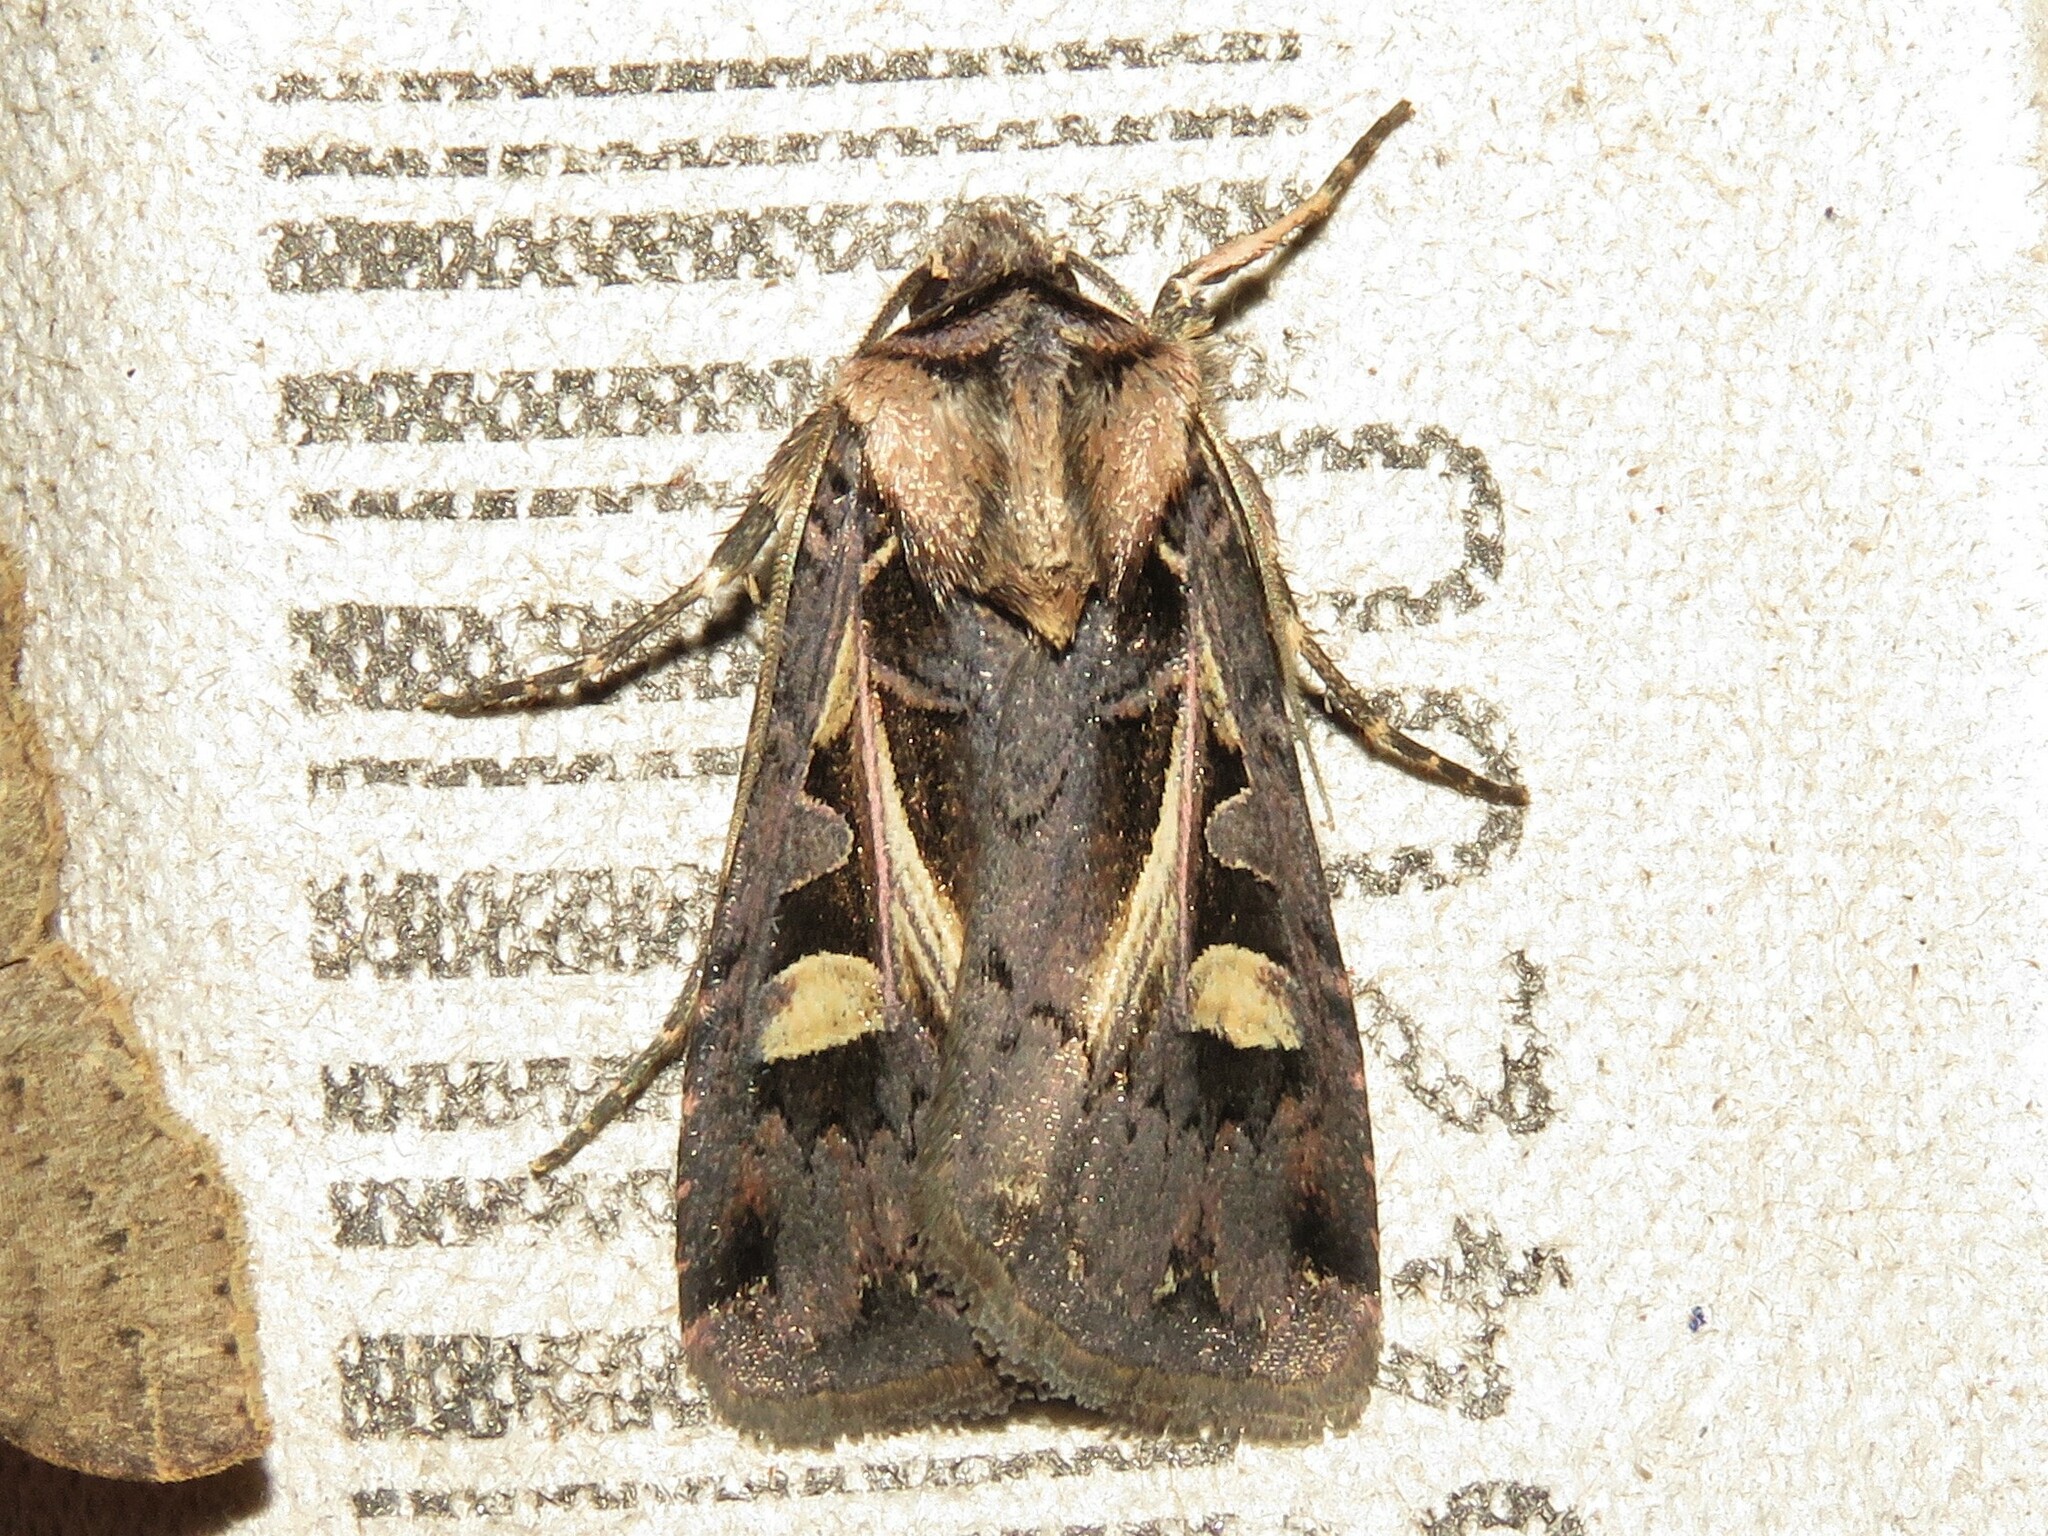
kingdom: Animalia
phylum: Arthropoda
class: Insecta
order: Lepidoptera
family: Noctuidae
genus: Feltia
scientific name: Feltia herilis
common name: Master's dart
